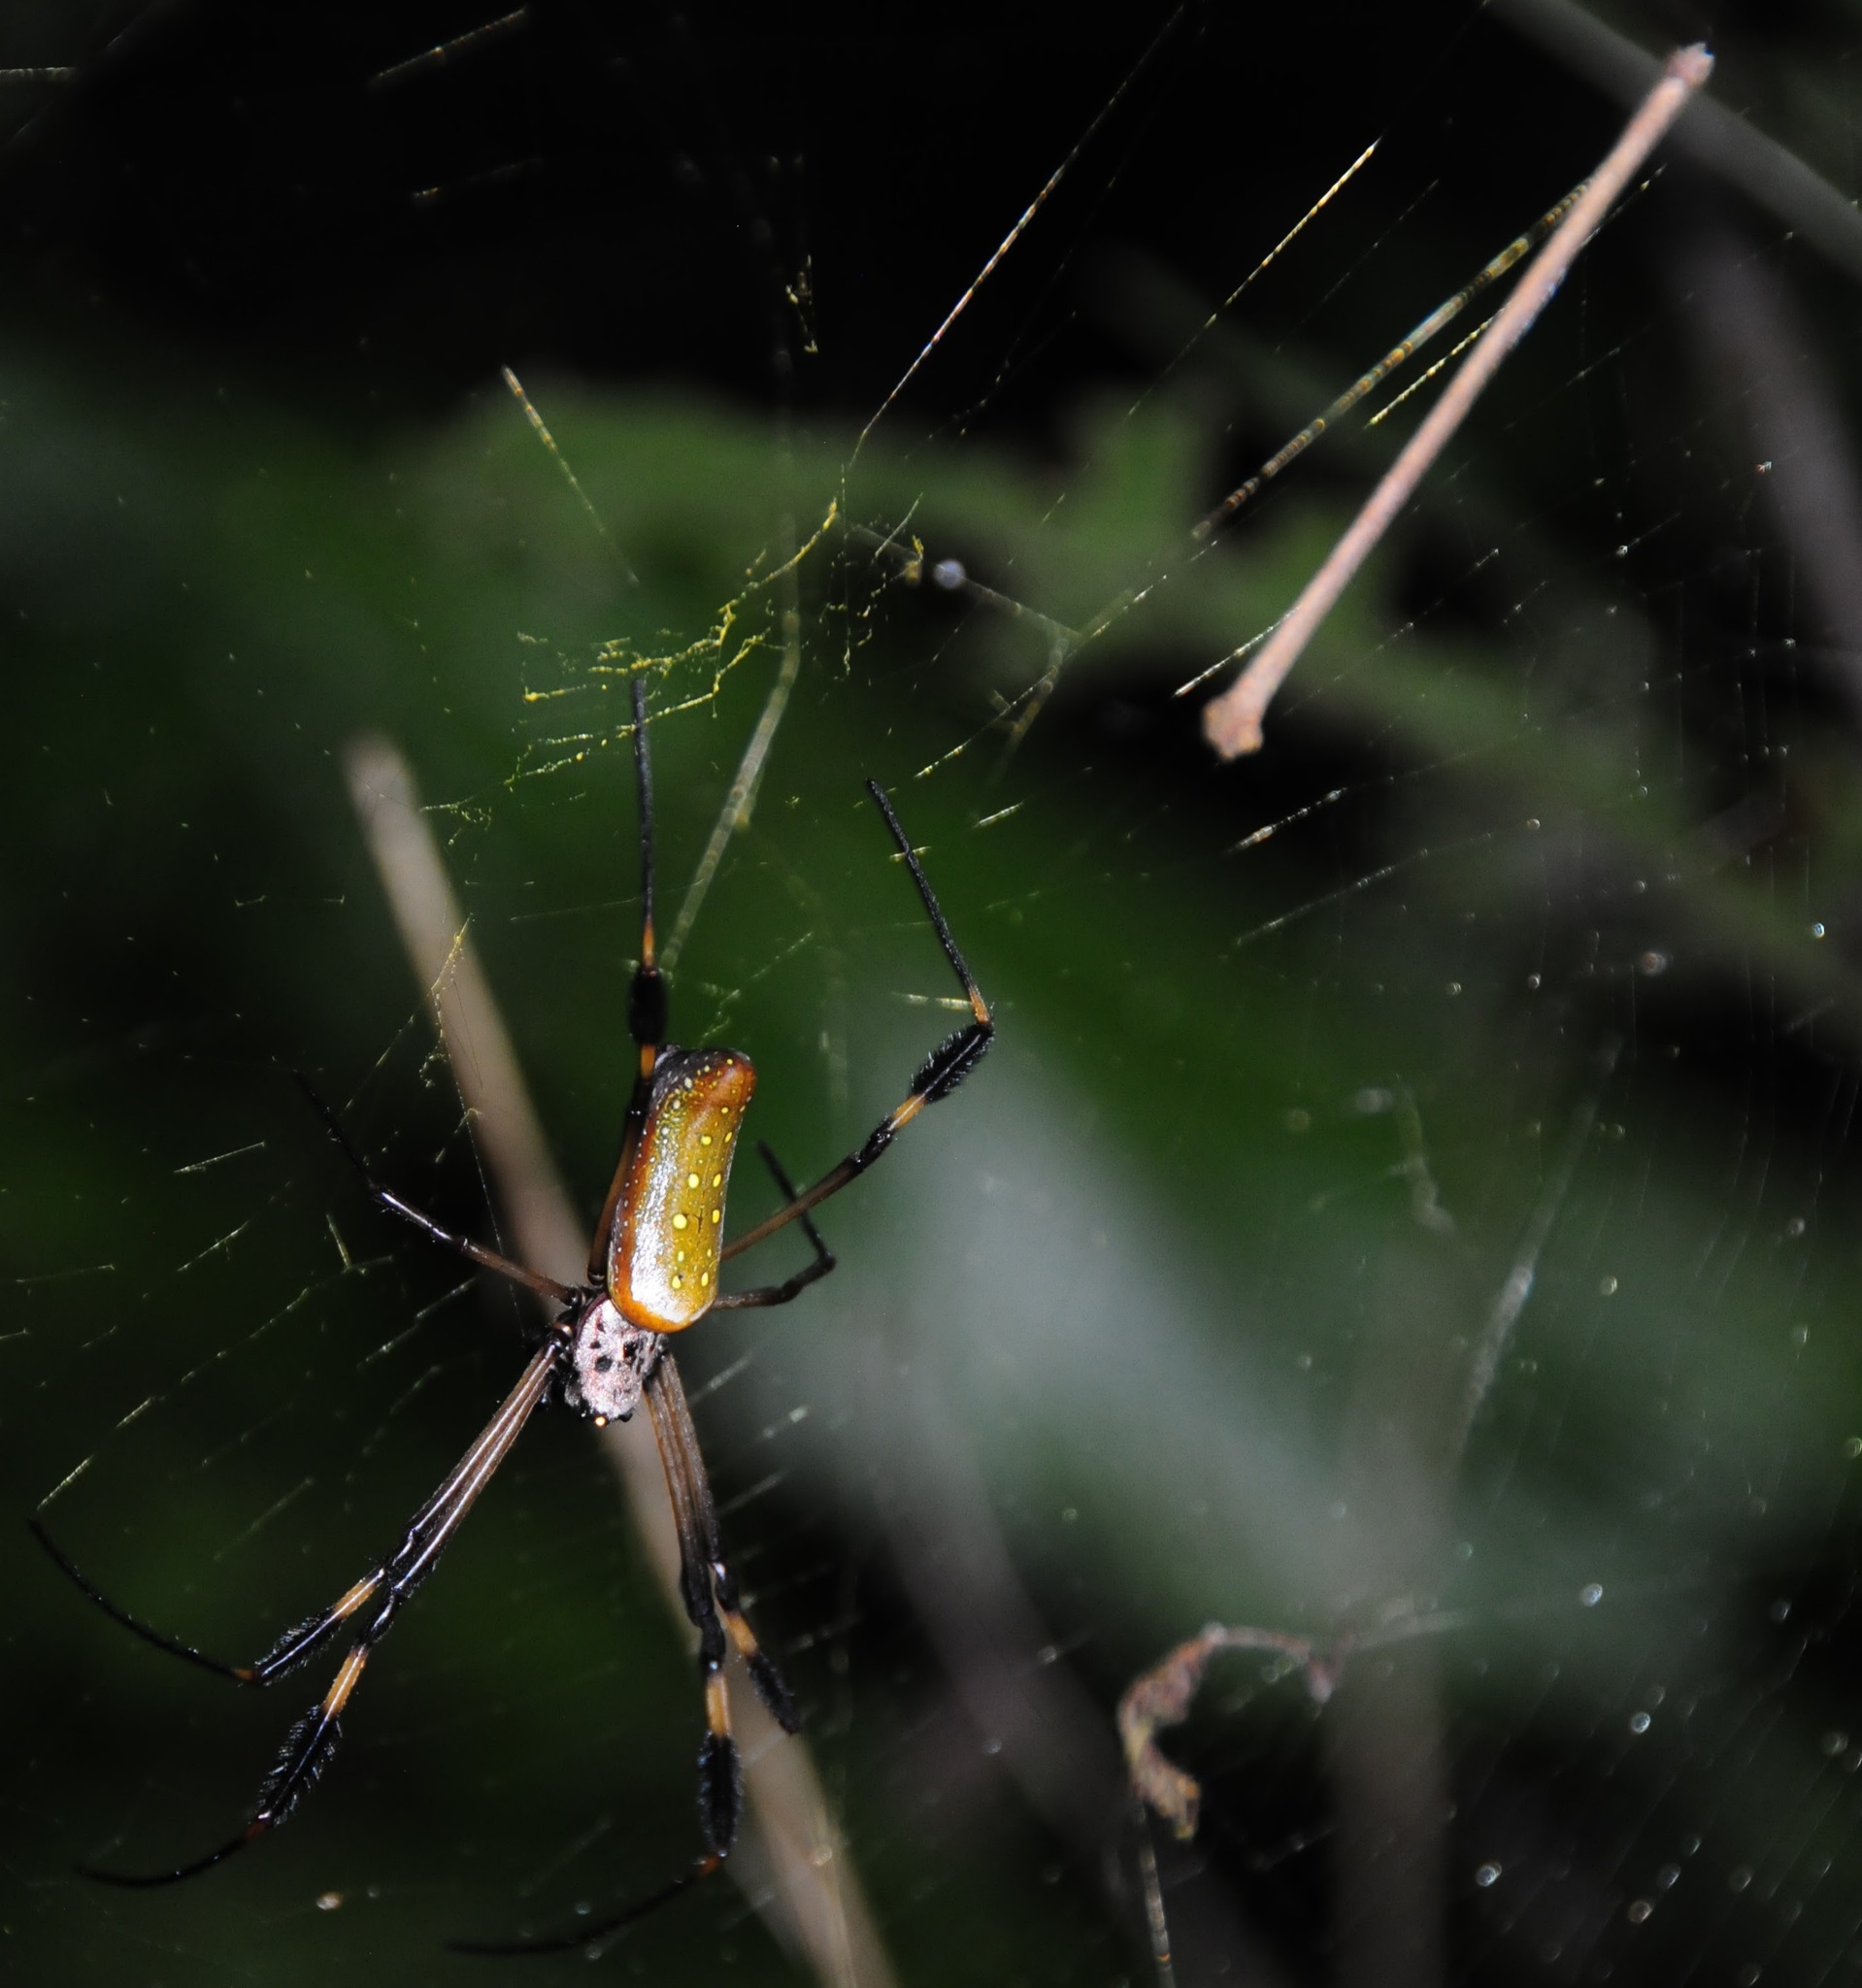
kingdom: Animalia
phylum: Arthropoda
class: Arachnida
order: Araneae
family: Araneidae
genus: Trichonephila
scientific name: Trichonephila clavipes
